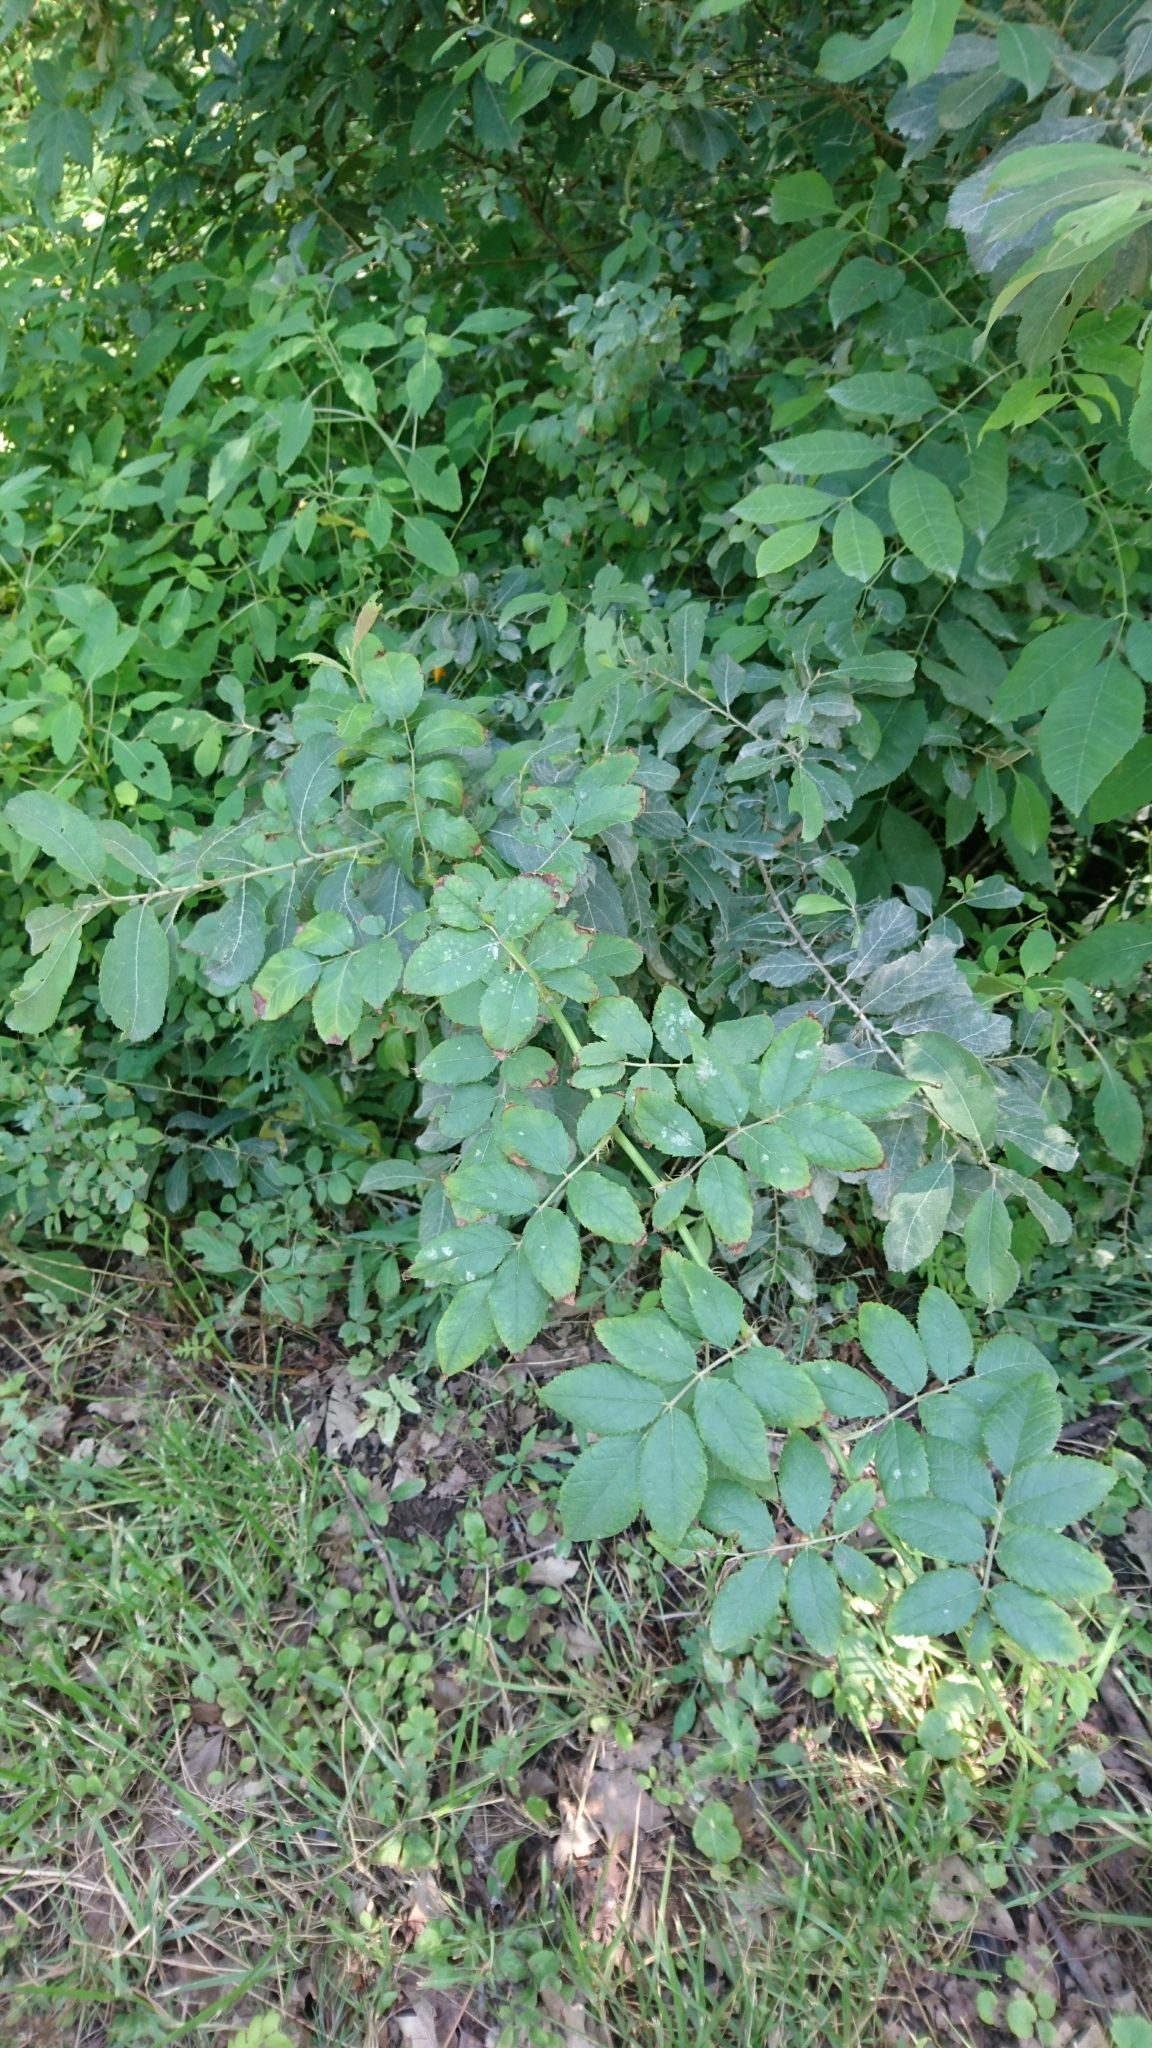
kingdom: Plantae
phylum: Tracheophyta
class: Magnoliopsida
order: Rosales
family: Rosaceae
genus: Rosa
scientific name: Rosa multiflora
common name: Multiflora rose
